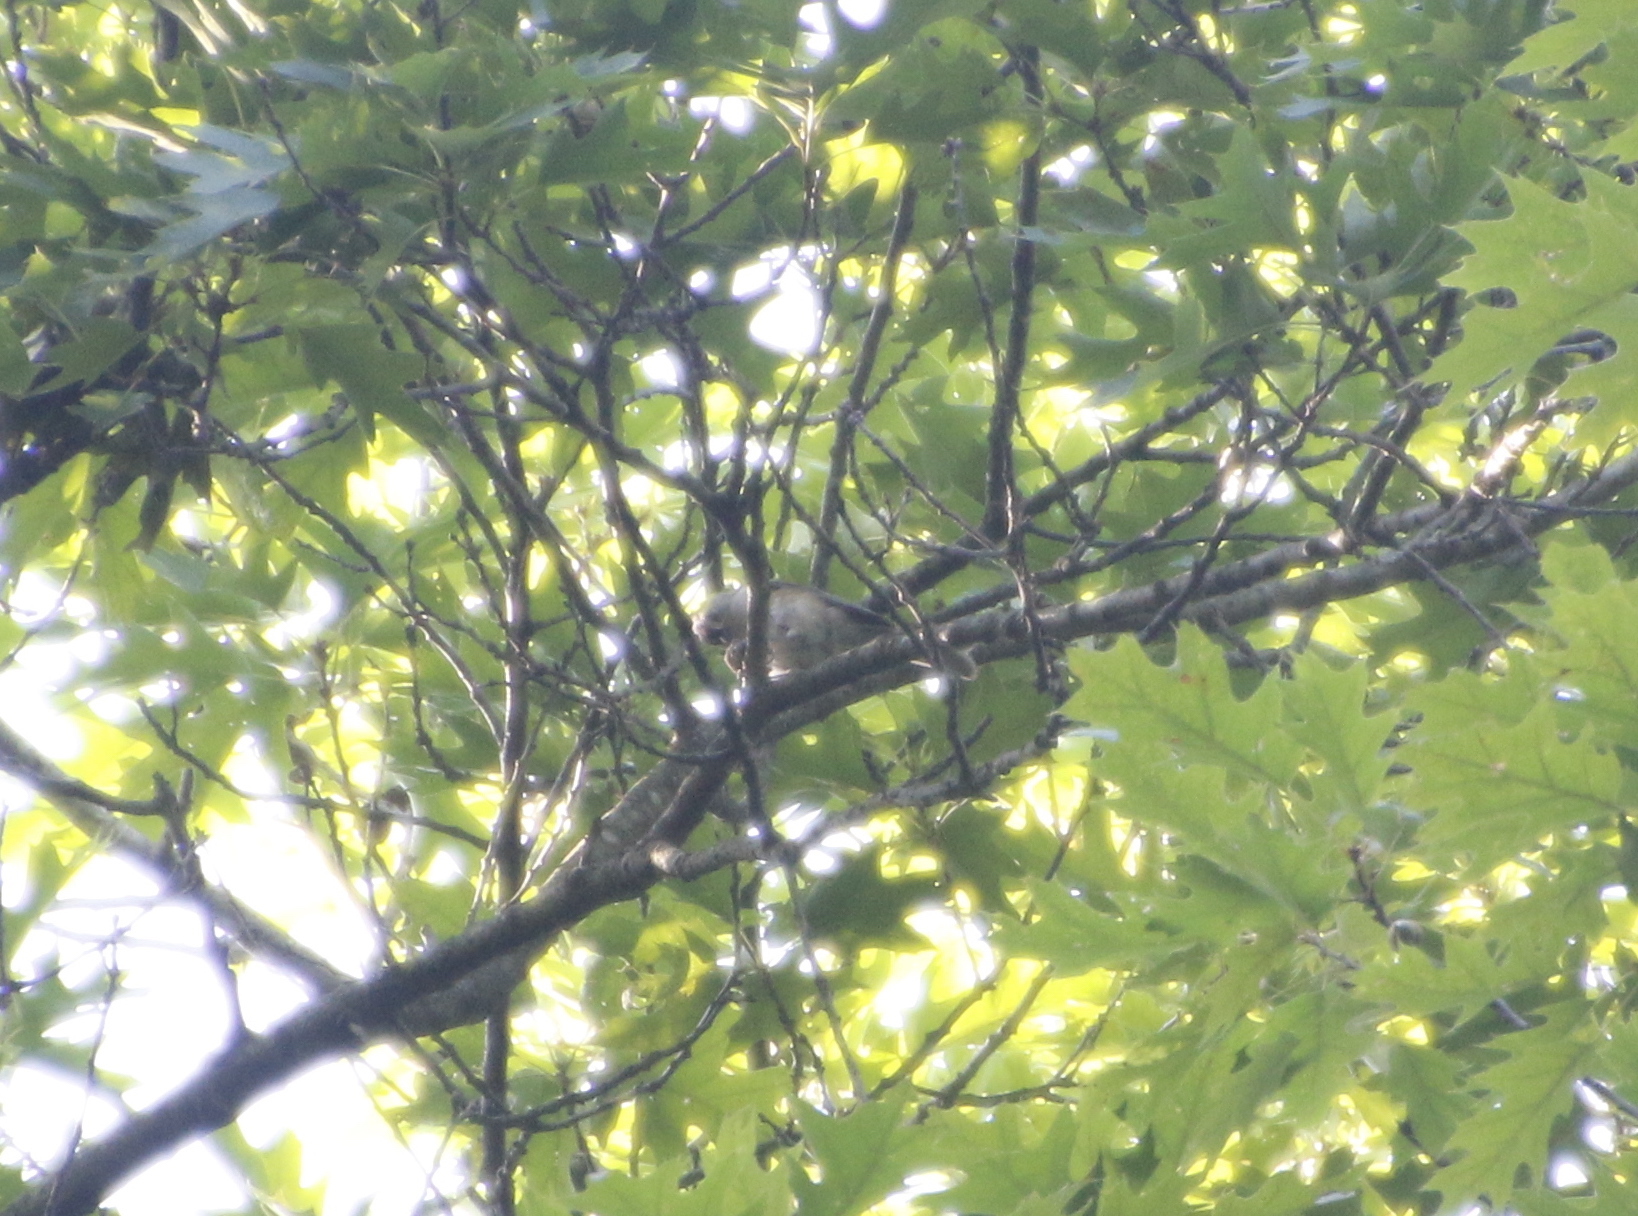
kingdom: Animalia
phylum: Chordata
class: Aves
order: Passeriformes
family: Paridae
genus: Baeolophus
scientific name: Baeolophus bicolor
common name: Tufted titmouse
